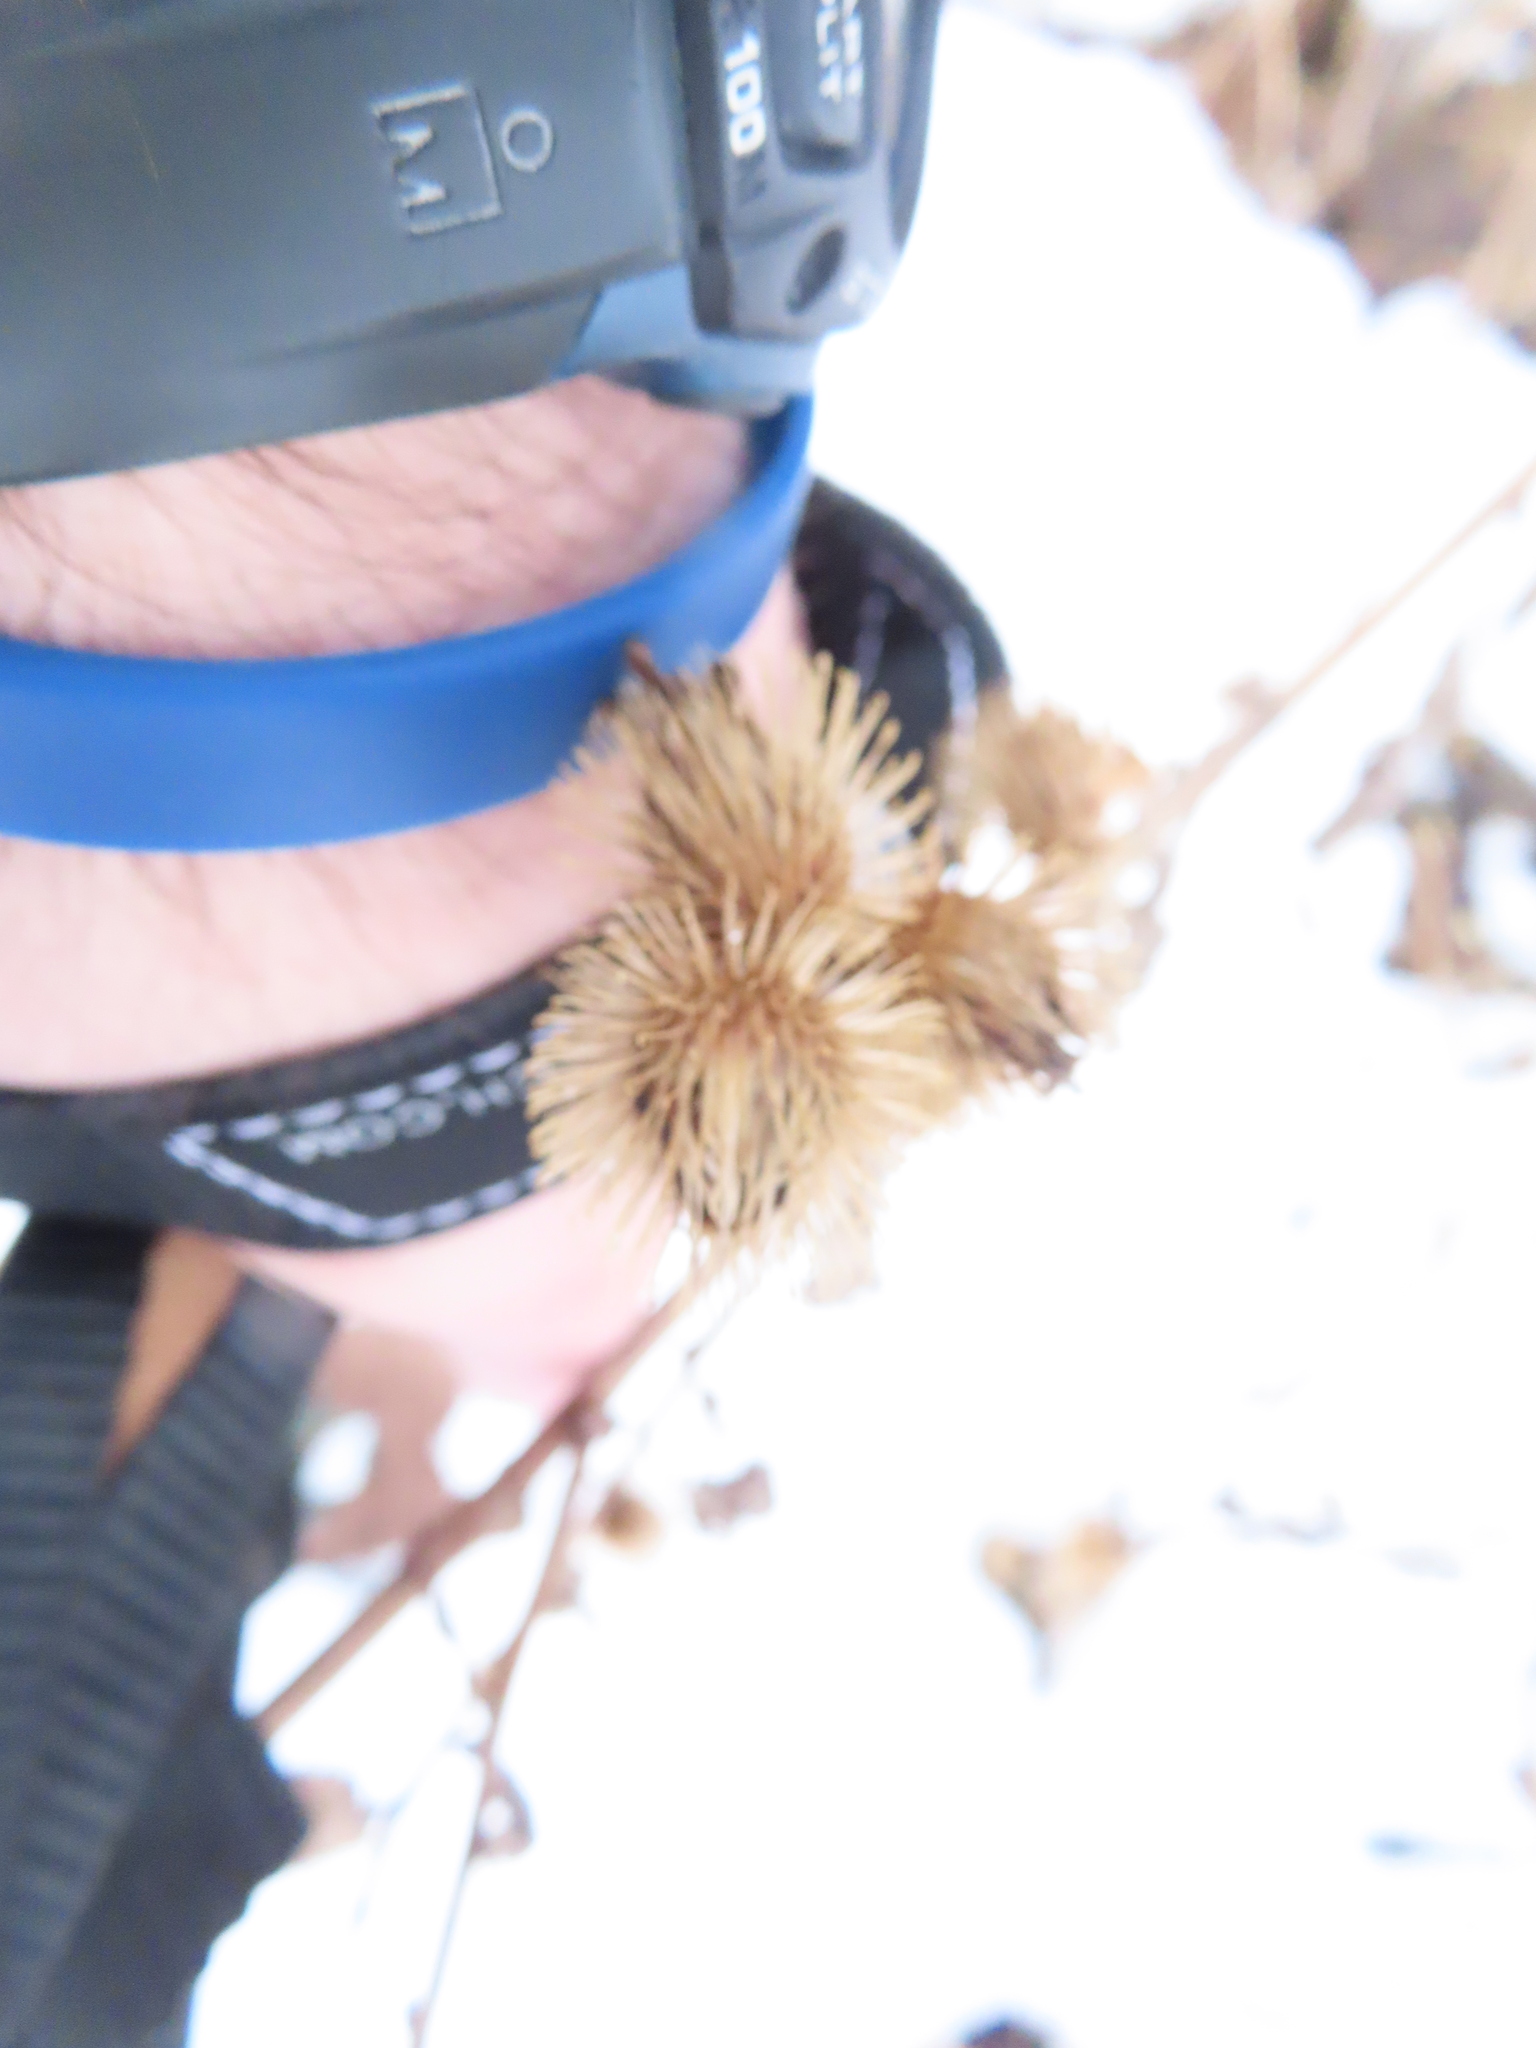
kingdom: Plantae
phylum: Tracheophyta
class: Magnoliopsida
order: Asterales
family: Asteraceae
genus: Arctium
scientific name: Arctium minus
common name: Lesser burdock
